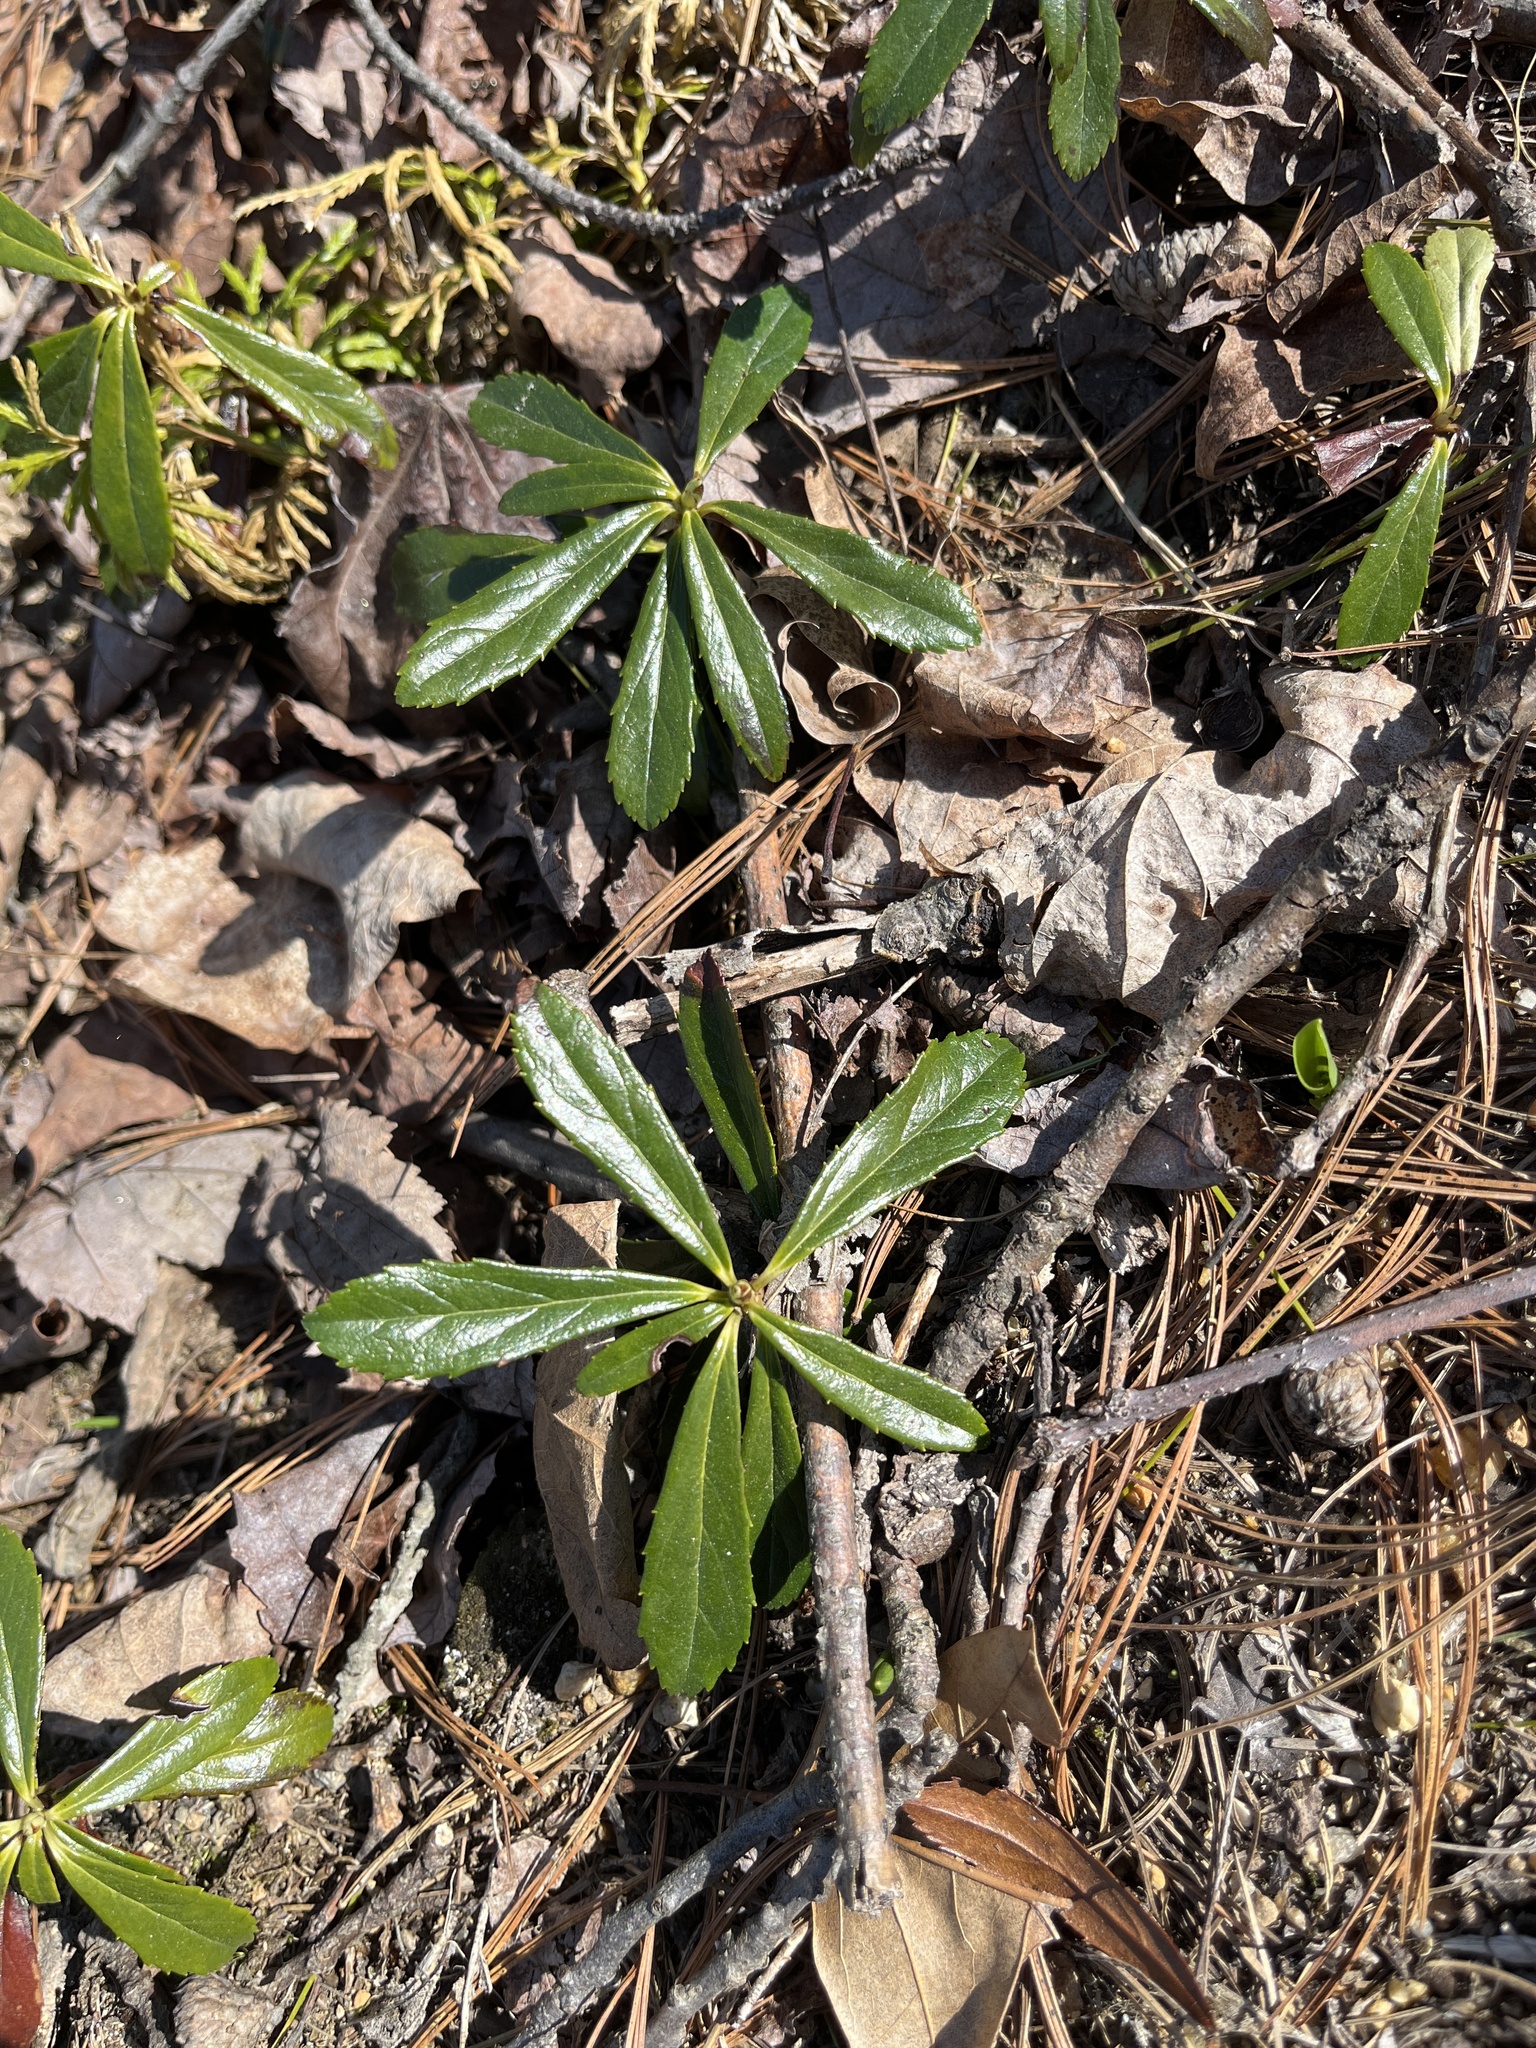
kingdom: Plantae
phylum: Tracheophyta
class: Magnoliopsida
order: Ericales
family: Ericaceae
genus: Chimaphila
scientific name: Chimaphila umbellata
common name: Pipsissewa
